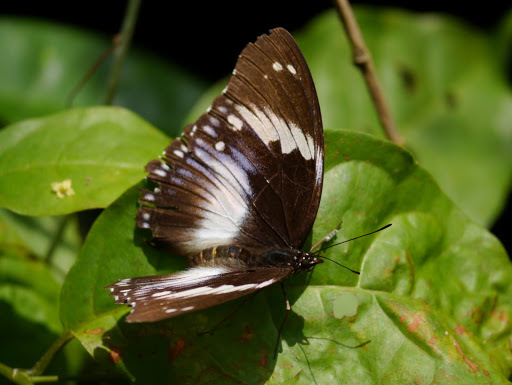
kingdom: Animalia
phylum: Arthropoda
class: Insecta
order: Lepidoptera
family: Nymphalidae
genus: Hypolimnas
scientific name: Hypolimnas salmacis
